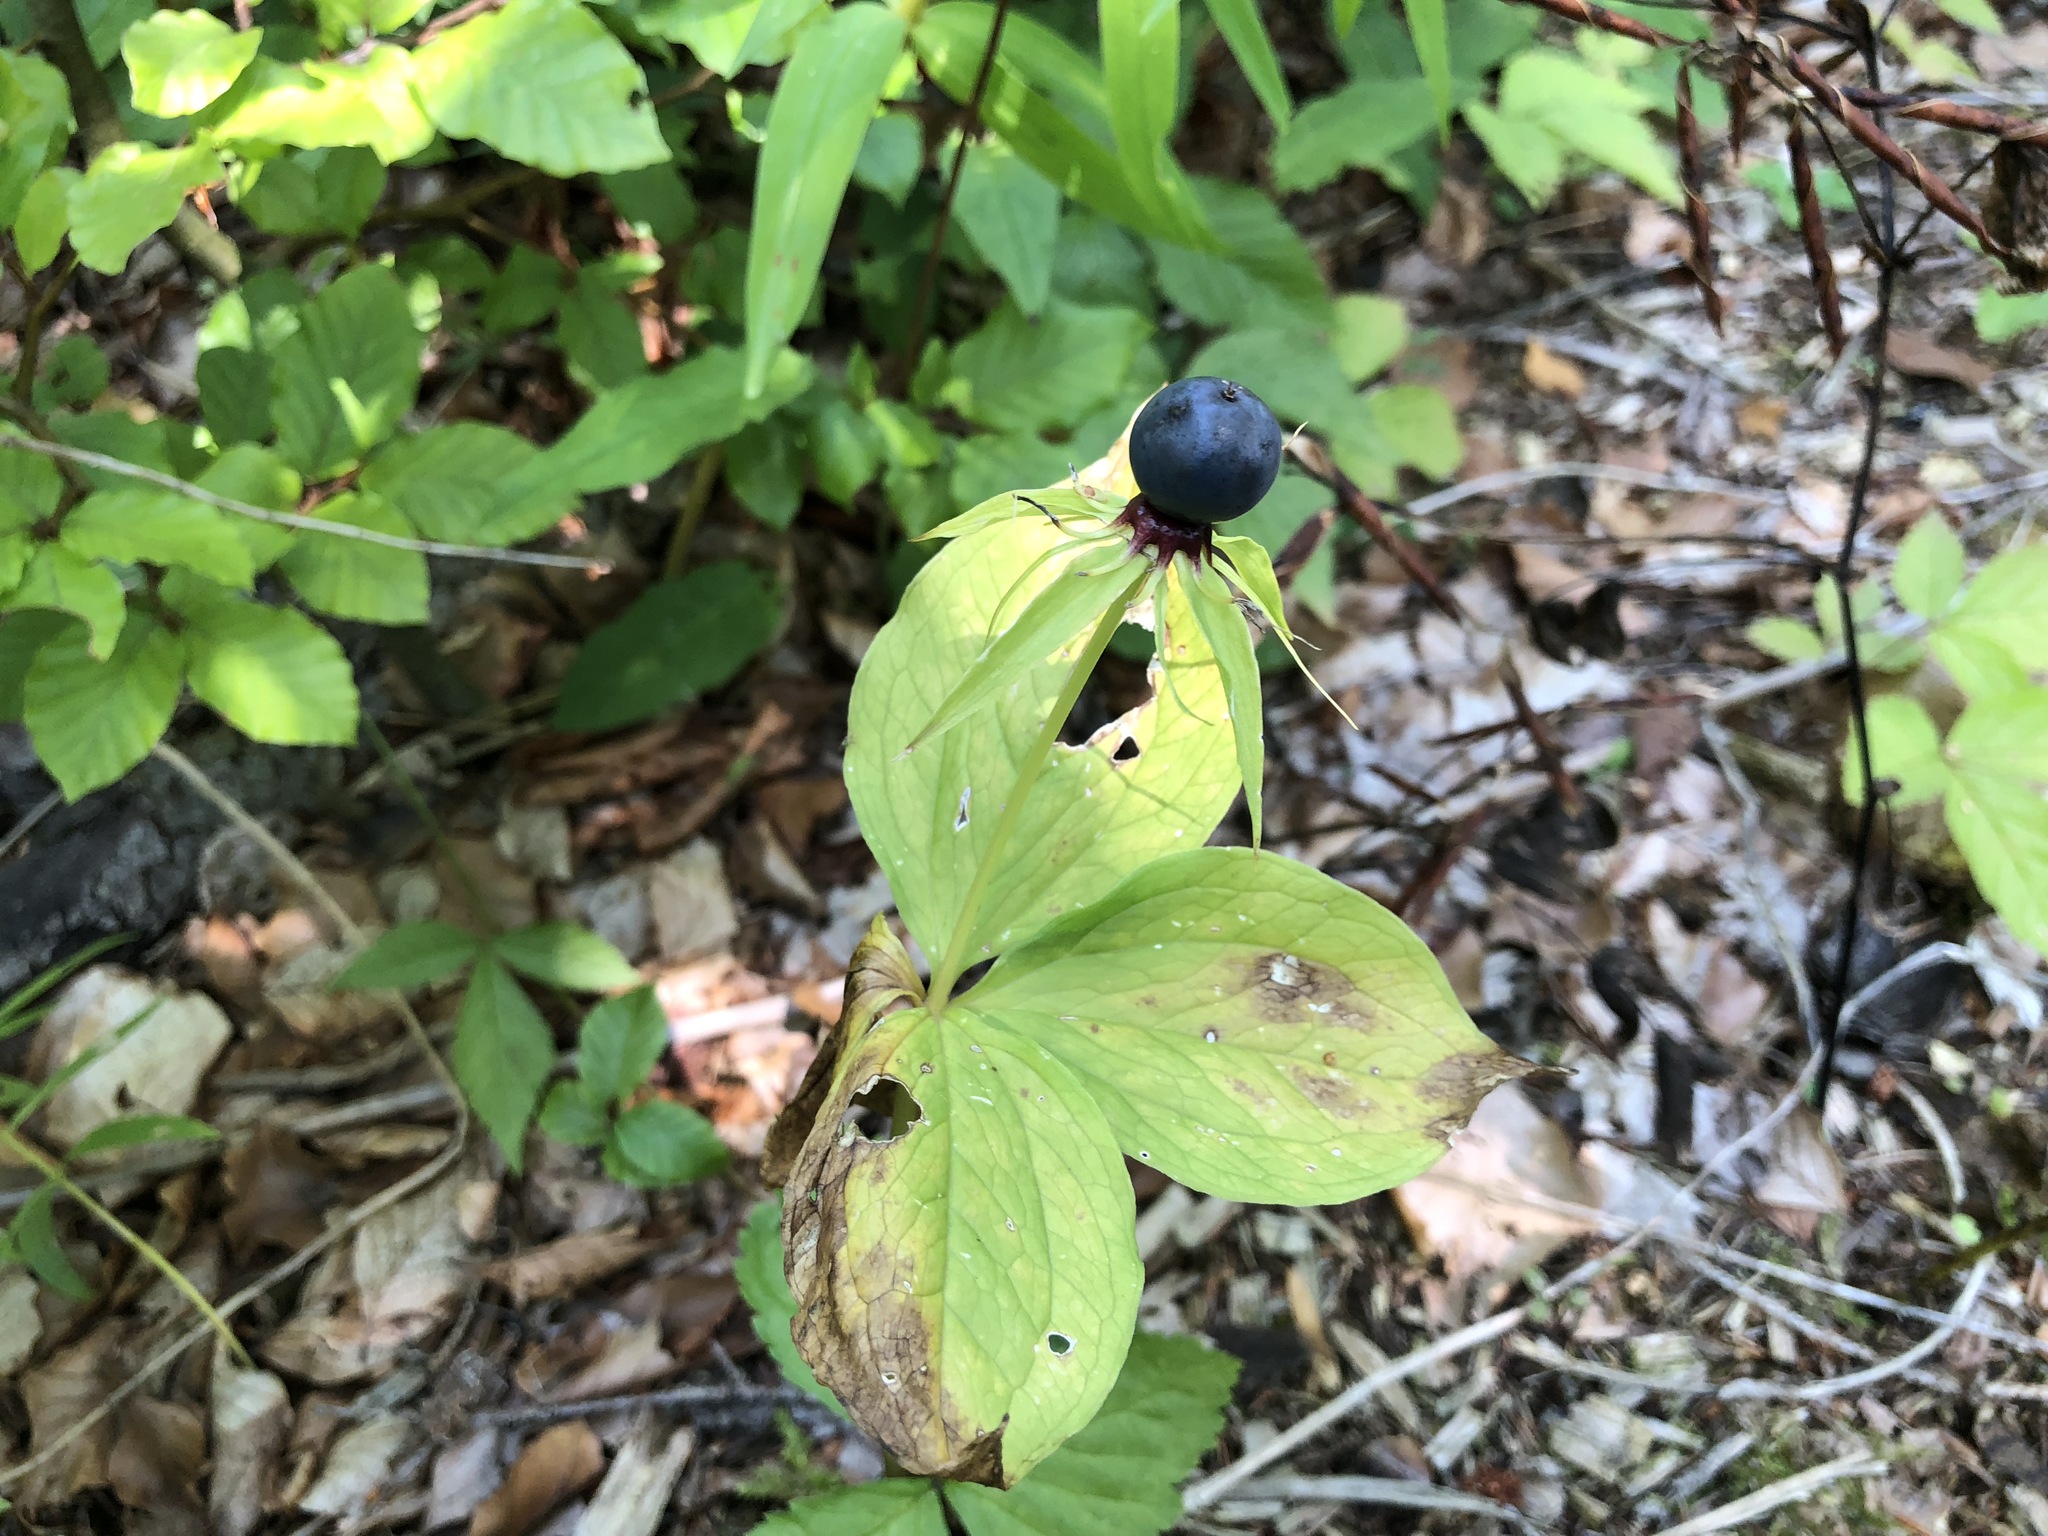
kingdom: Plantae
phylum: Tracheophyta
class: Liliopsida
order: Liliales
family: Melanthiaceae
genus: Paris
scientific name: Paris quadrifolia
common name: Herb-paris
